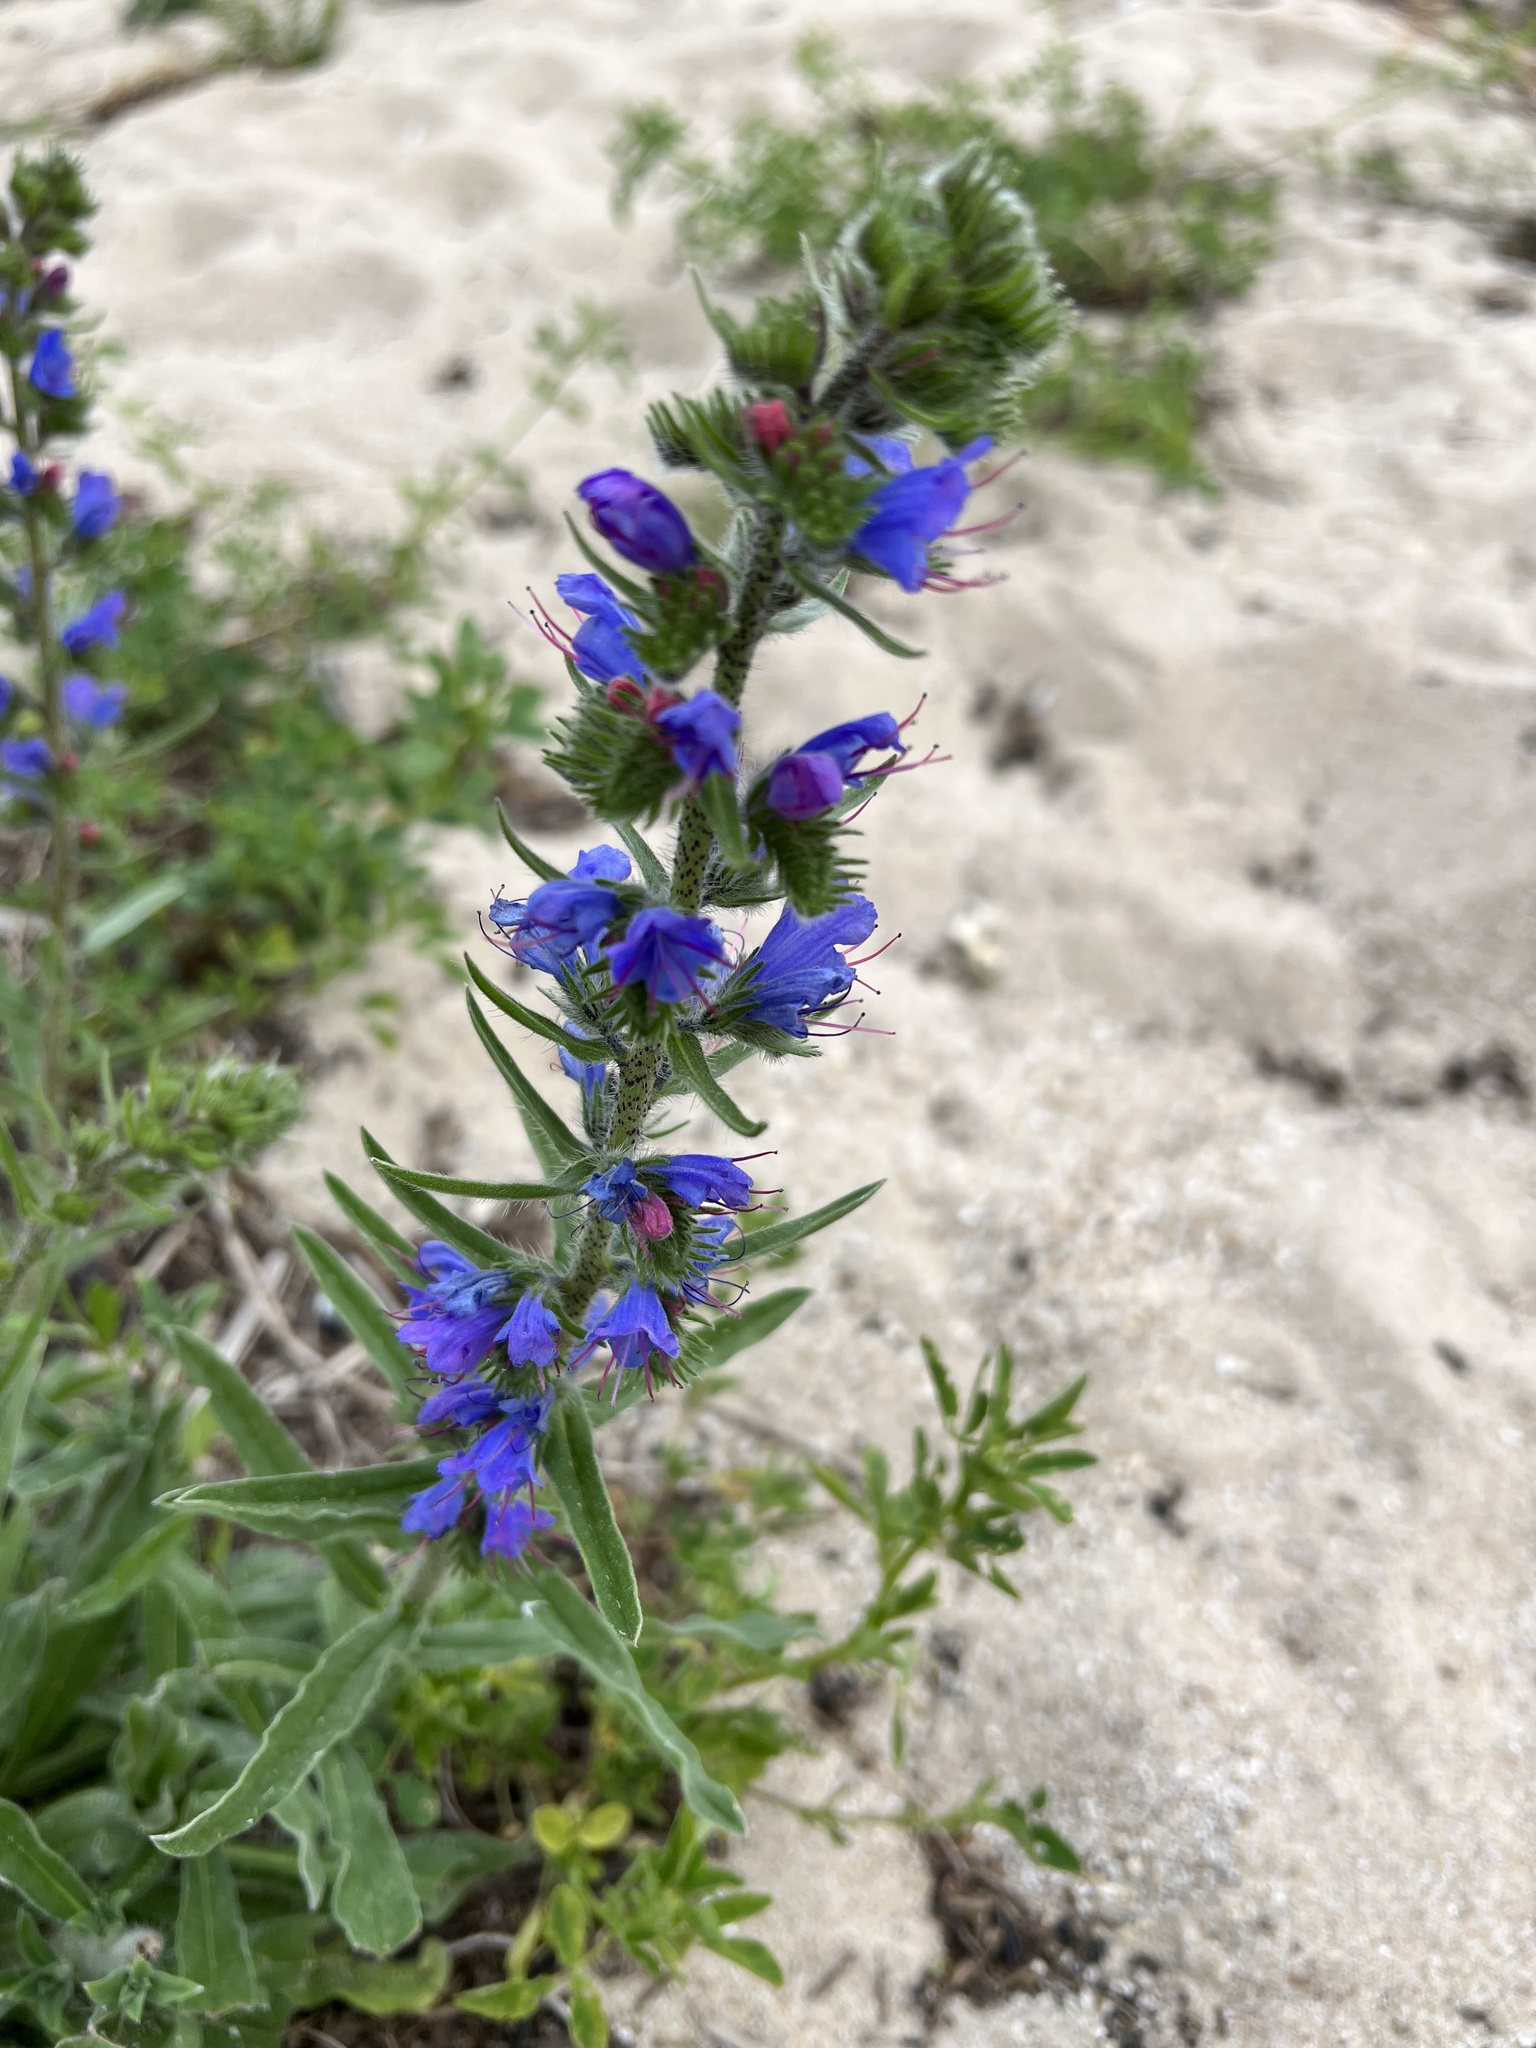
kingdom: Plantae
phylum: Tracheophyta
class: Magnoliopsida
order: Boraginales
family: Boraginaceae
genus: Echium
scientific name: Echium vulgare
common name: Common viper's bugloss
